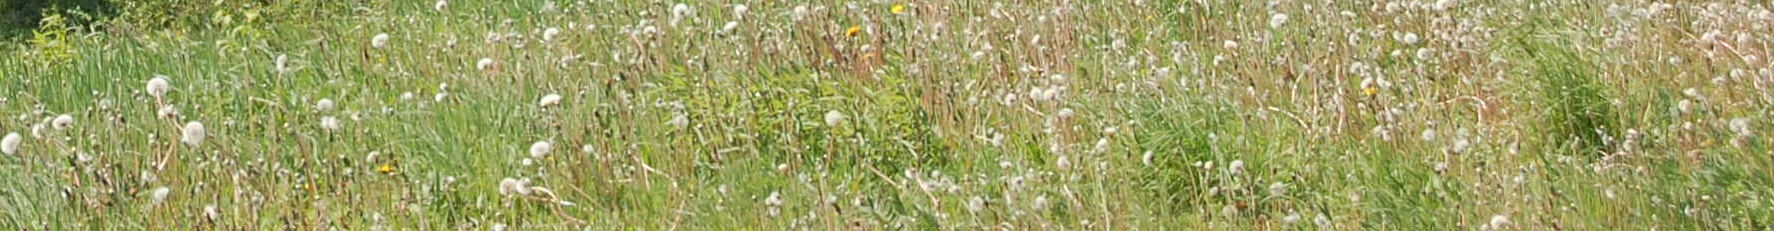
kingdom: Plantae
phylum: Tracheophyta
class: Magnoliopsida
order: Asterales
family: Asteraceae
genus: Taraxacum
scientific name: Taraxacum officinale
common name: Common dandelion
